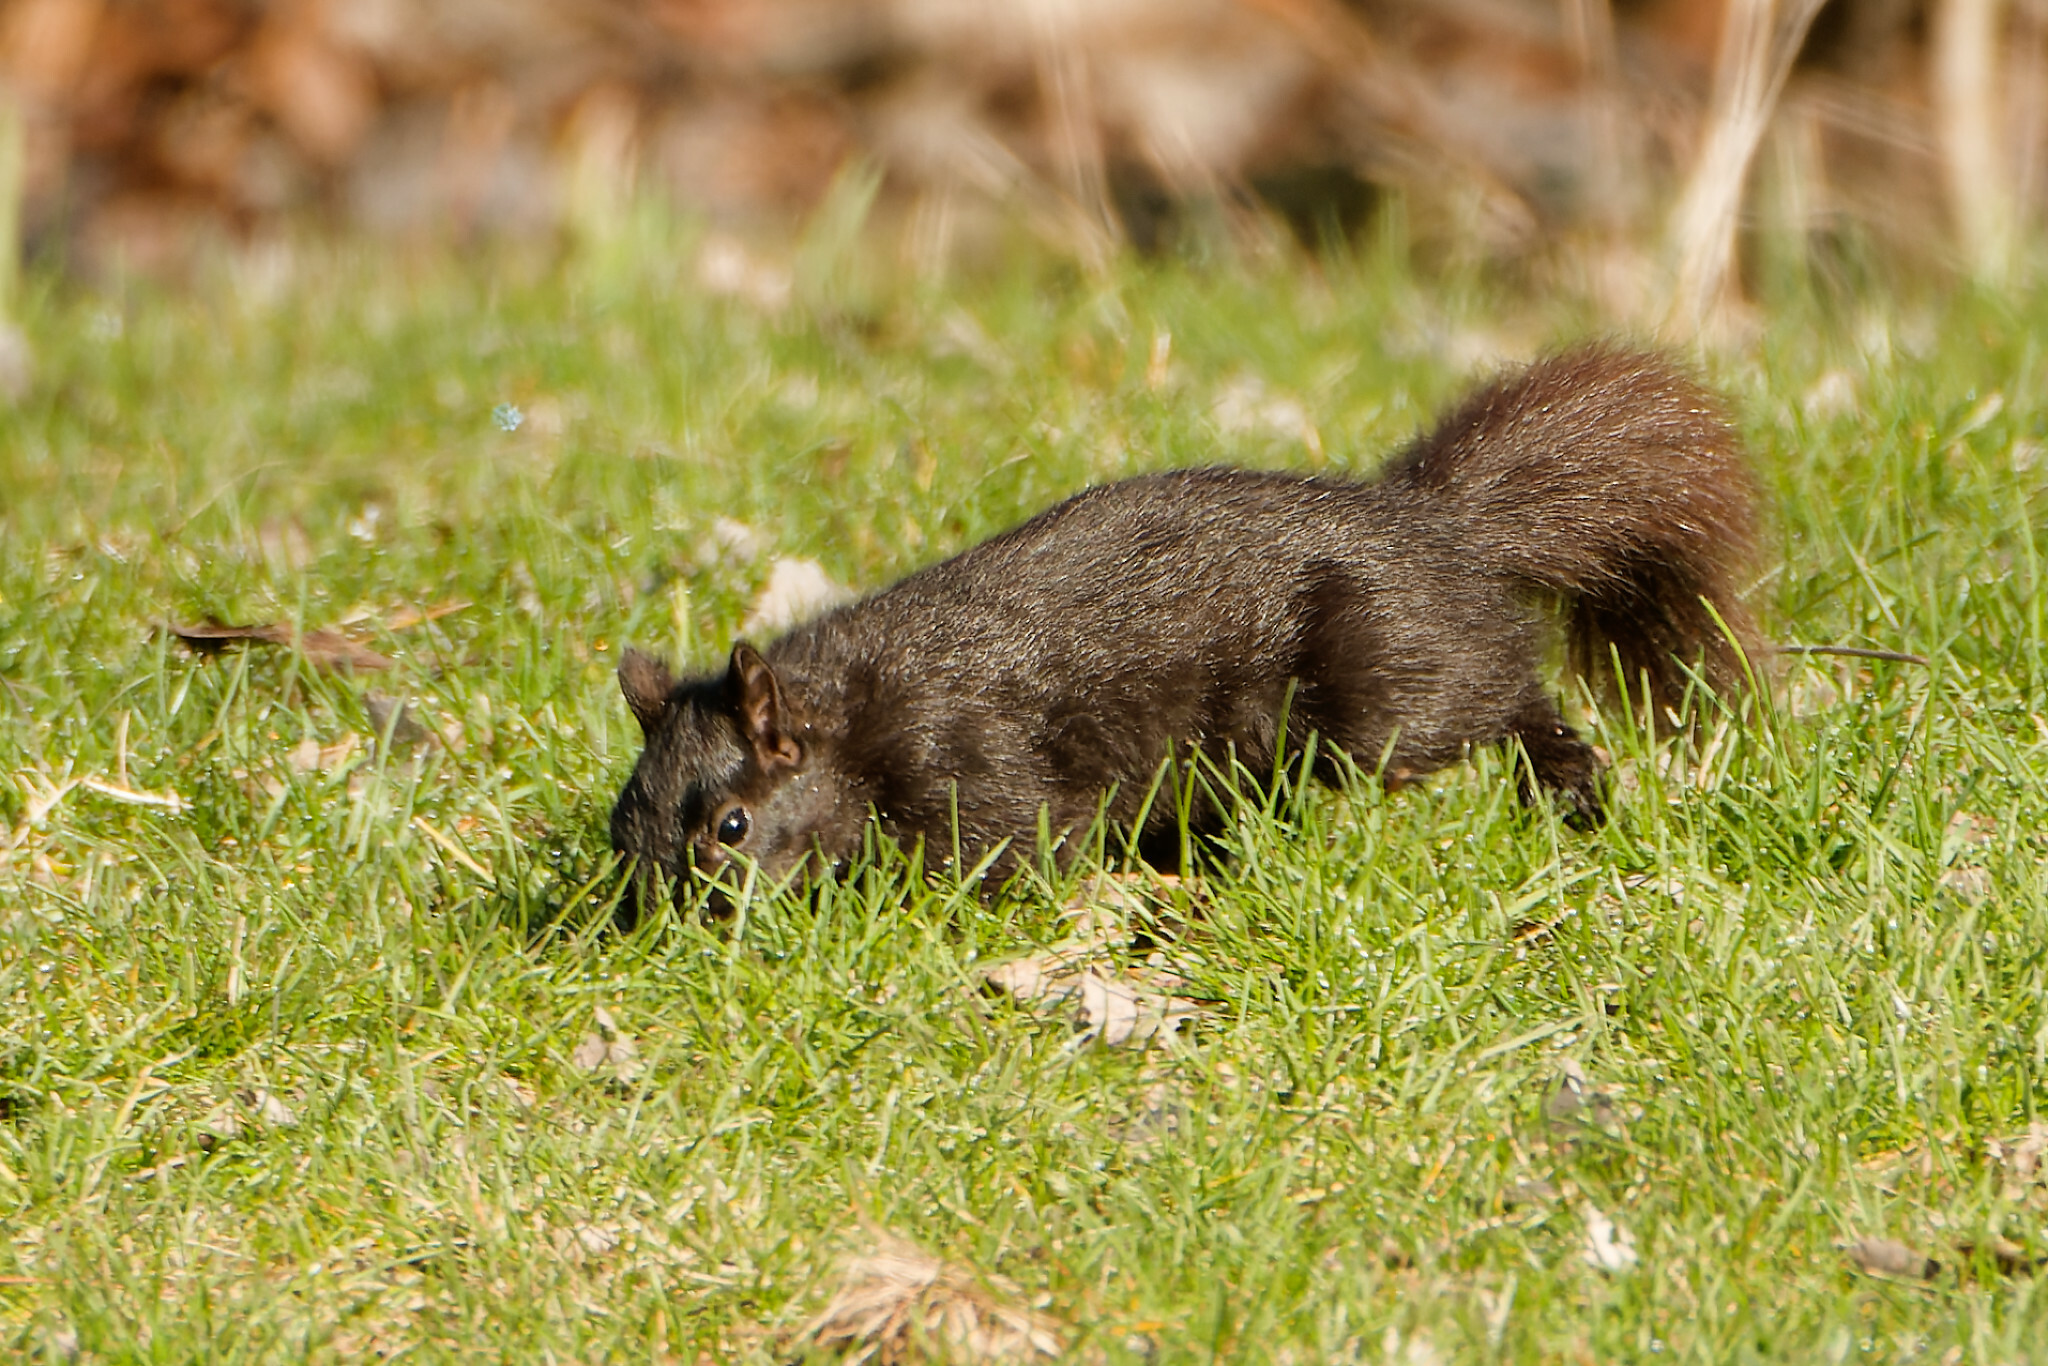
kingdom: Animalia
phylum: Chordata
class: Mammalia
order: Rodentia
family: Sciuridae
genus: Sciurus
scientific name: Sciurus carolinensis
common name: Eastern gray squirrel
